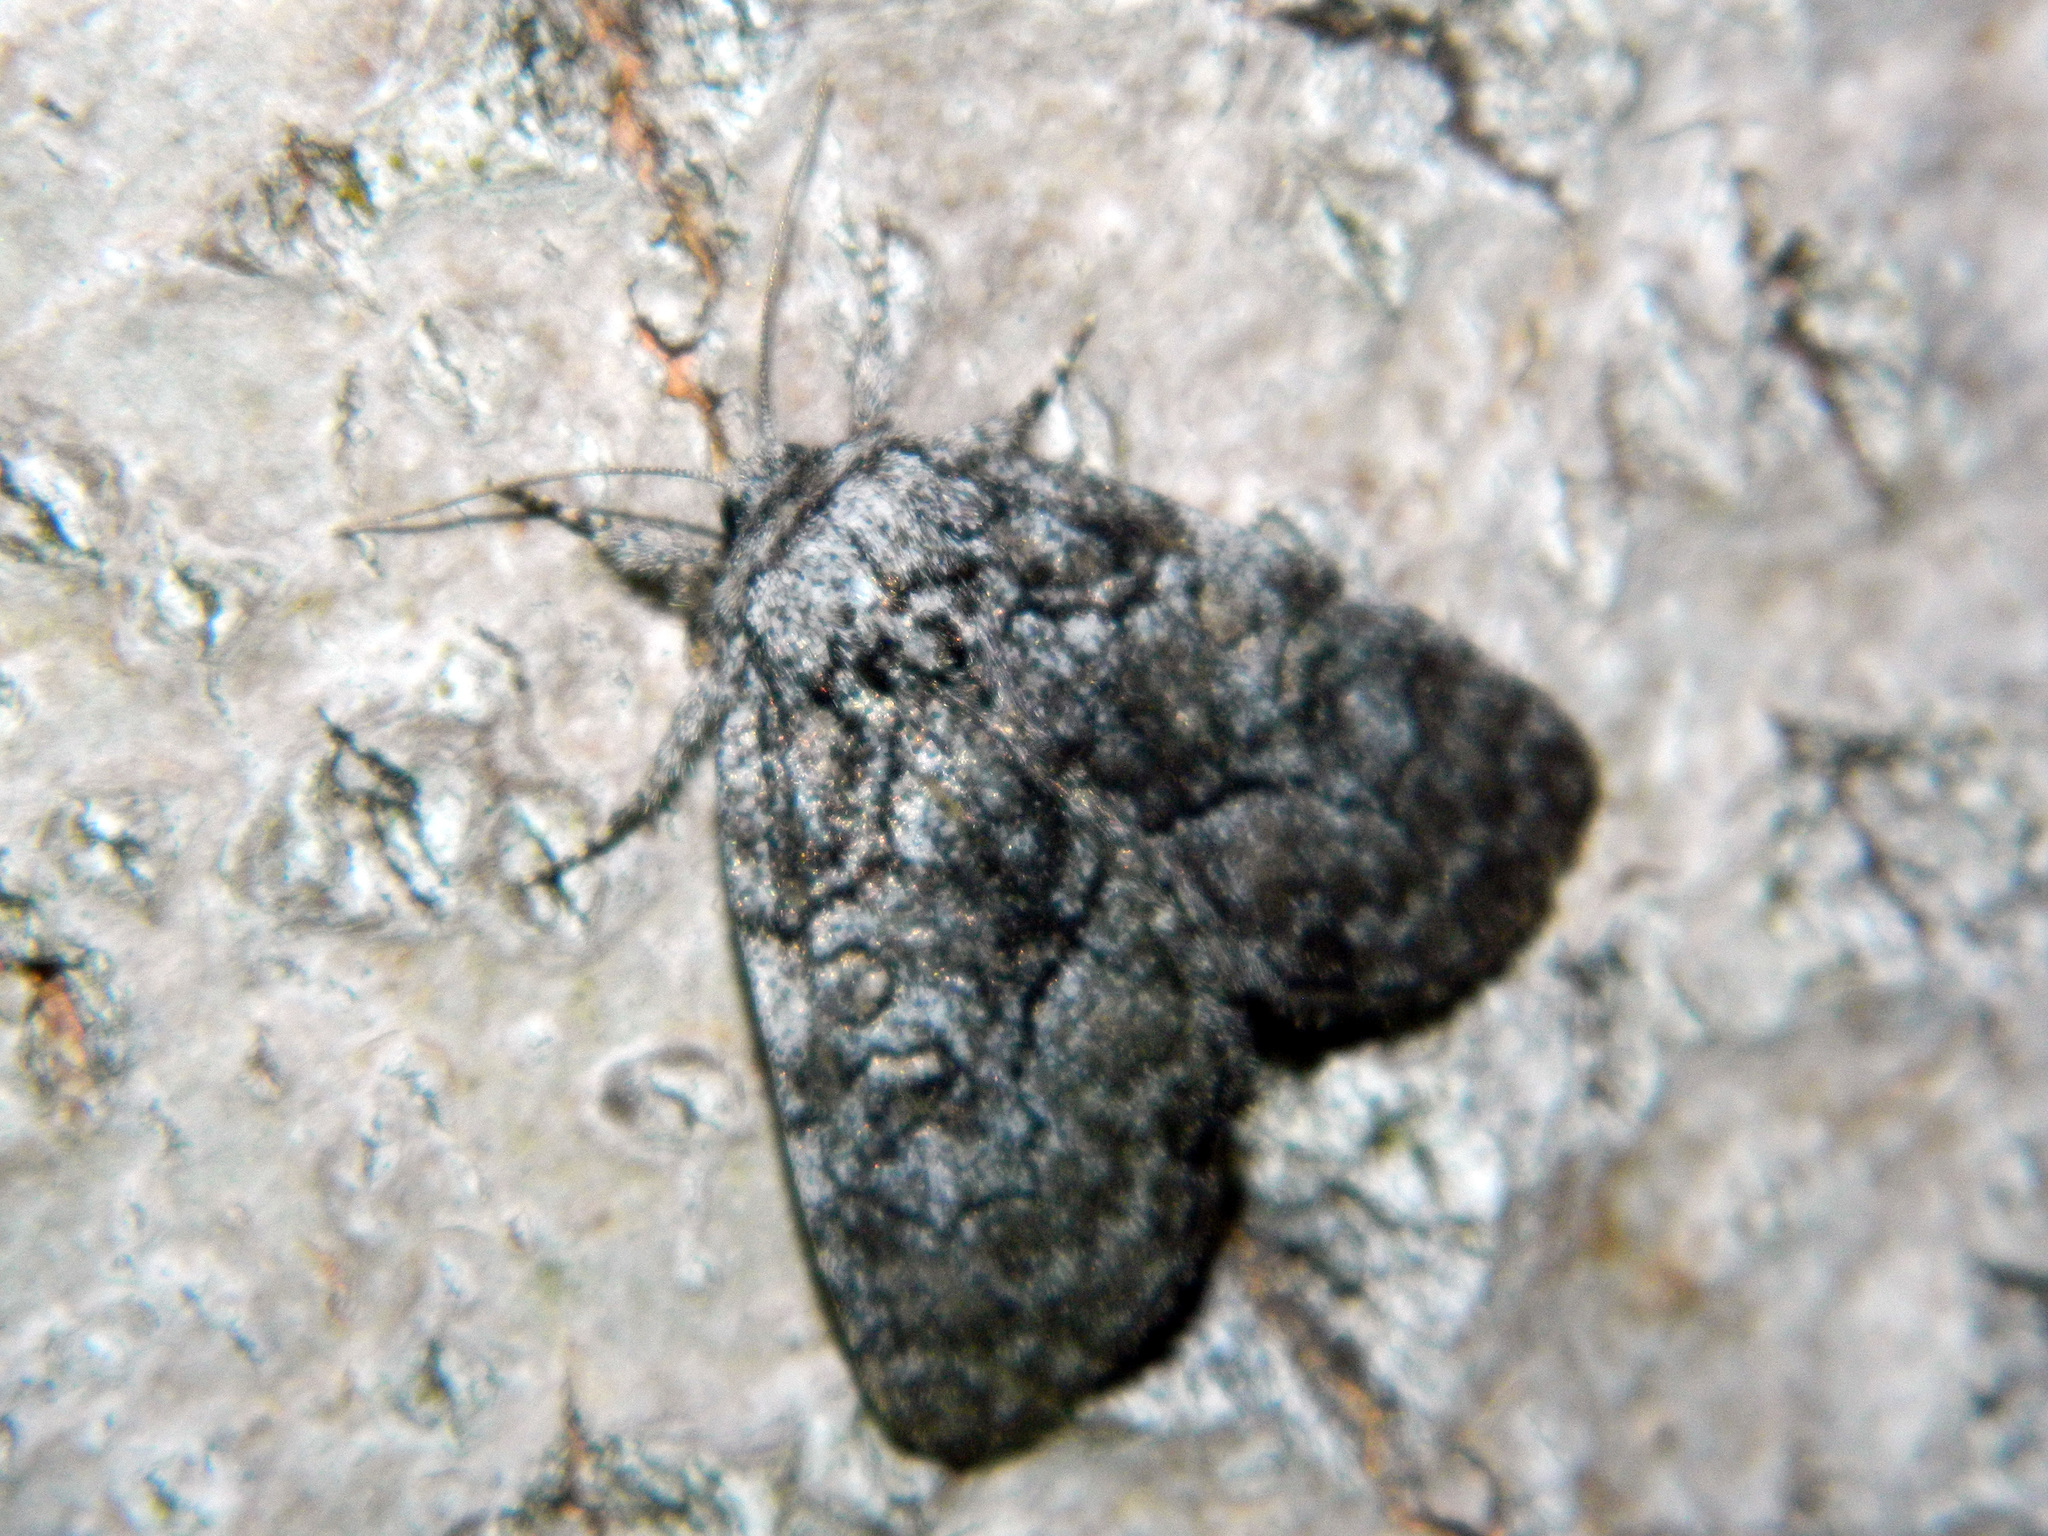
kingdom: Animalia
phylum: Arthropoda
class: Insecta
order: Lepidoptera
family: Noctuidae
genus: Raphia
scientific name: Raphia frater
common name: Brother
